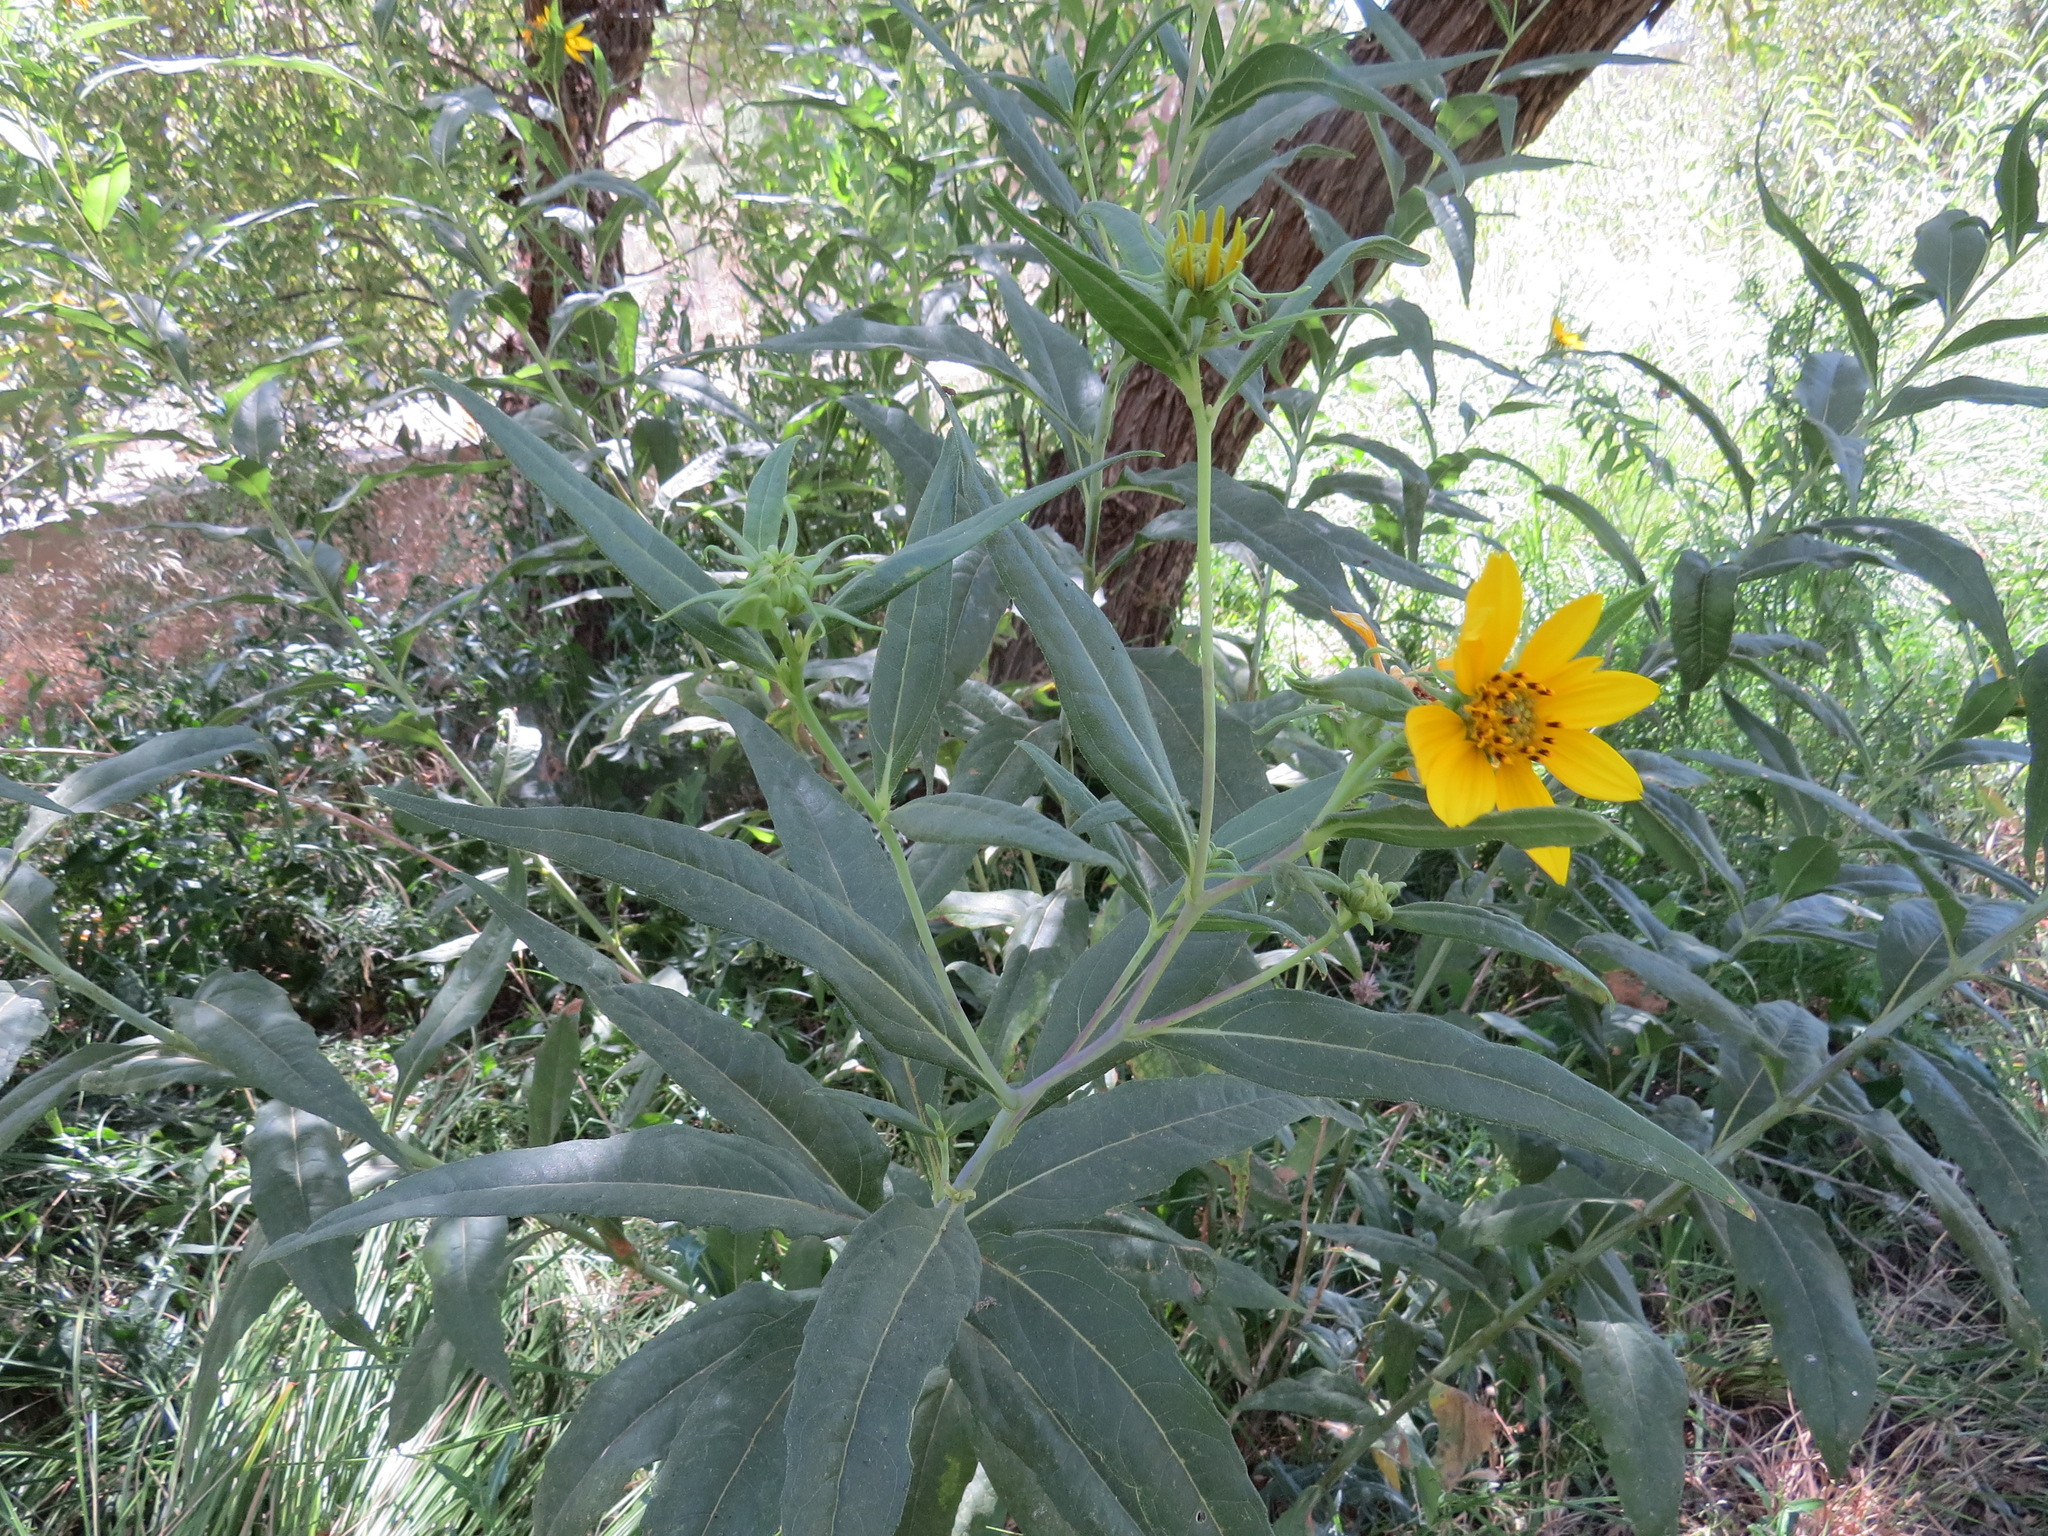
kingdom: Plantae
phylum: Tracheophyta
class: Magnoliopsida
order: Asterales
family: Asteraceae
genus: Helianthus
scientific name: Helianthus californicus
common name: California sunflower
